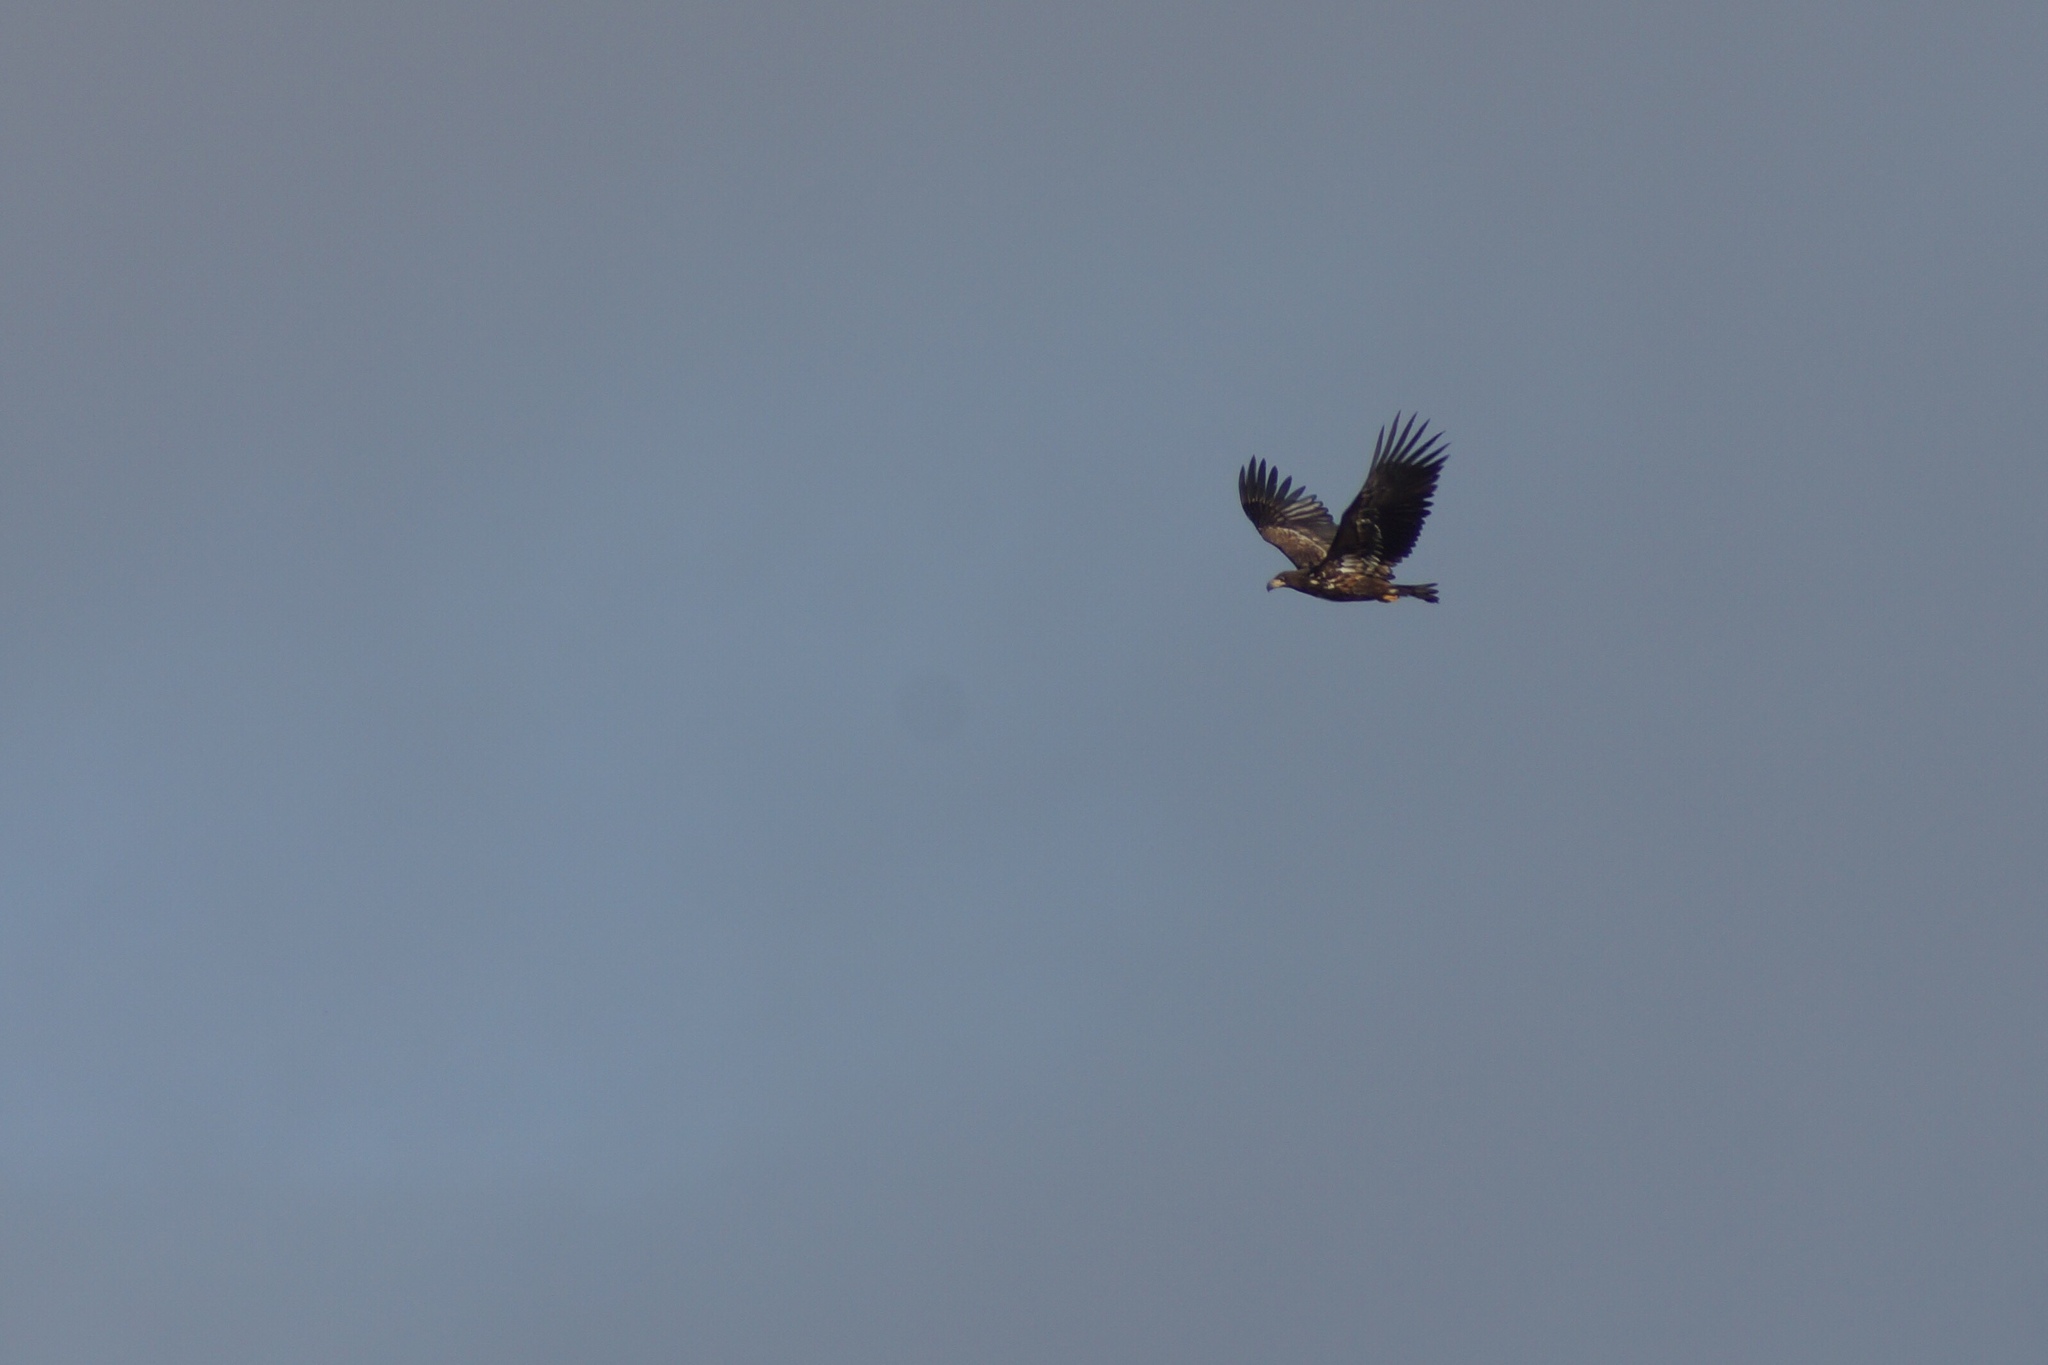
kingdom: Animalia
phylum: Chordata
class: Aves
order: Accipitriformes
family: Accipitridae
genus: Haliaeetus
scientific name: Haliaeetus albicilla
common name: White-tailed eagle
